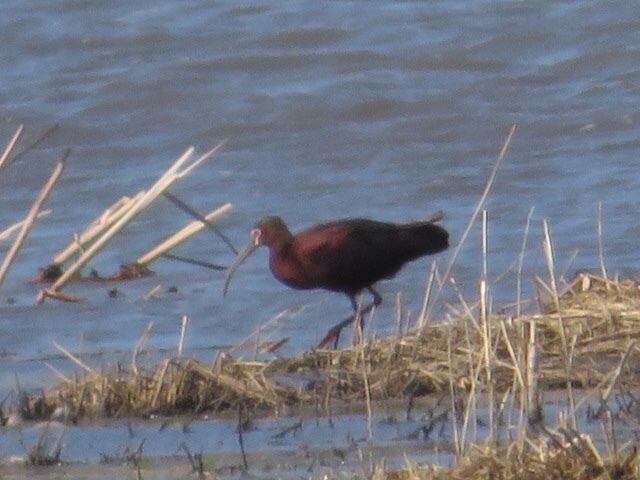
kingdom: Animalia
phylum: Chordata
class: Aves
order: Pelecaniformes
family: Threskiornithidae
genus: Plegadis
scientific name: Plegadis chihi
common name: White-faced ibis
